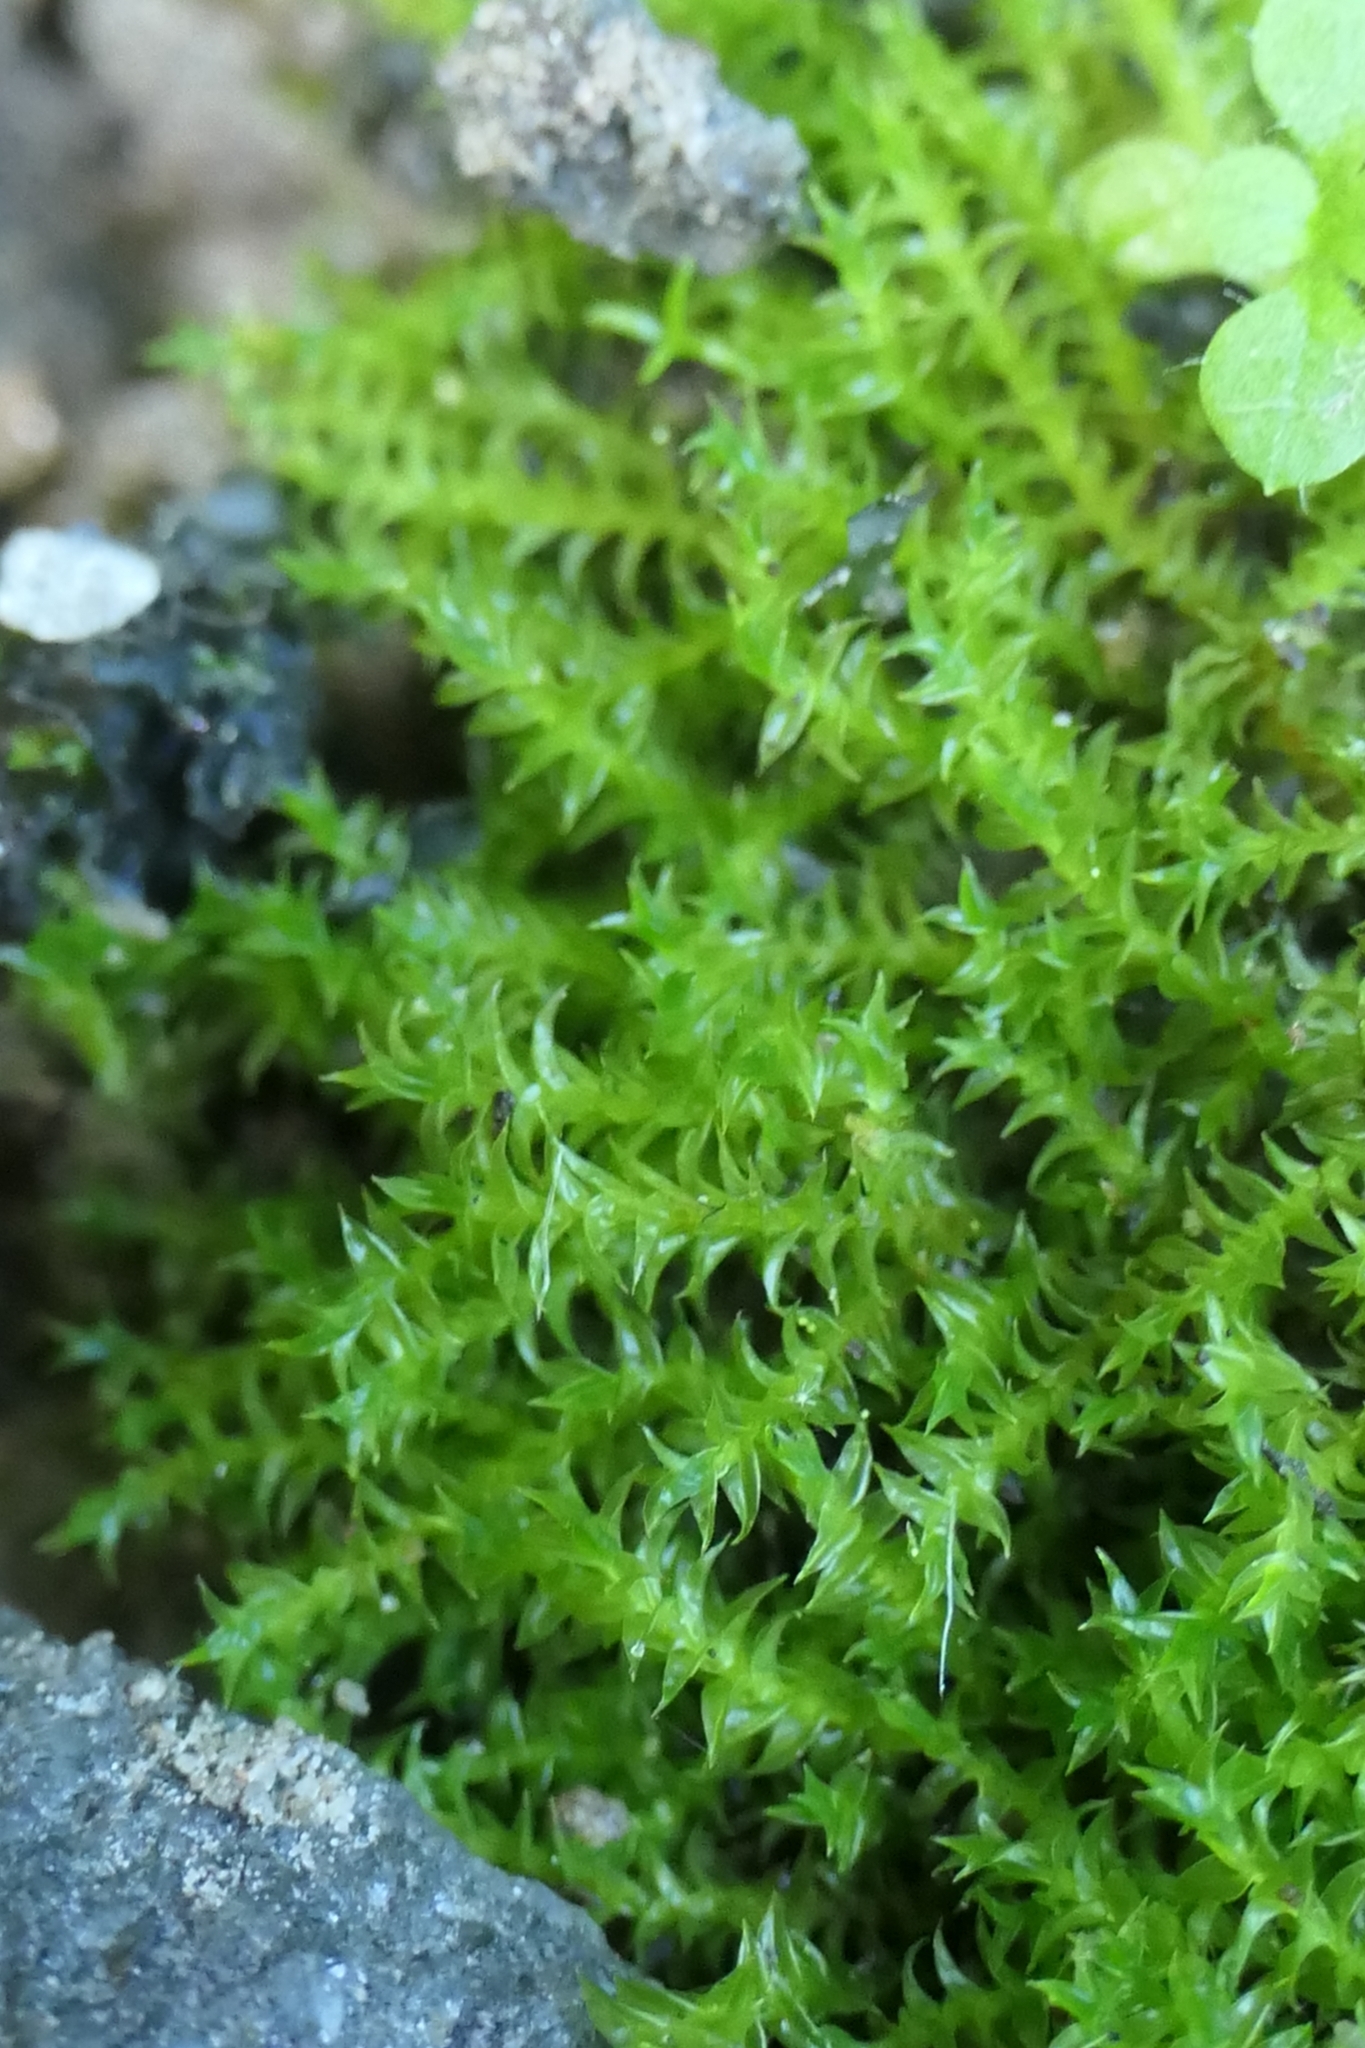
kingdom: Plantae
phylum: Bryophyta
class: Bryopsida
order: Pottiales
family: Pottiaceae
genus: Triquetrella
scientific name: Triquetrella papillata
